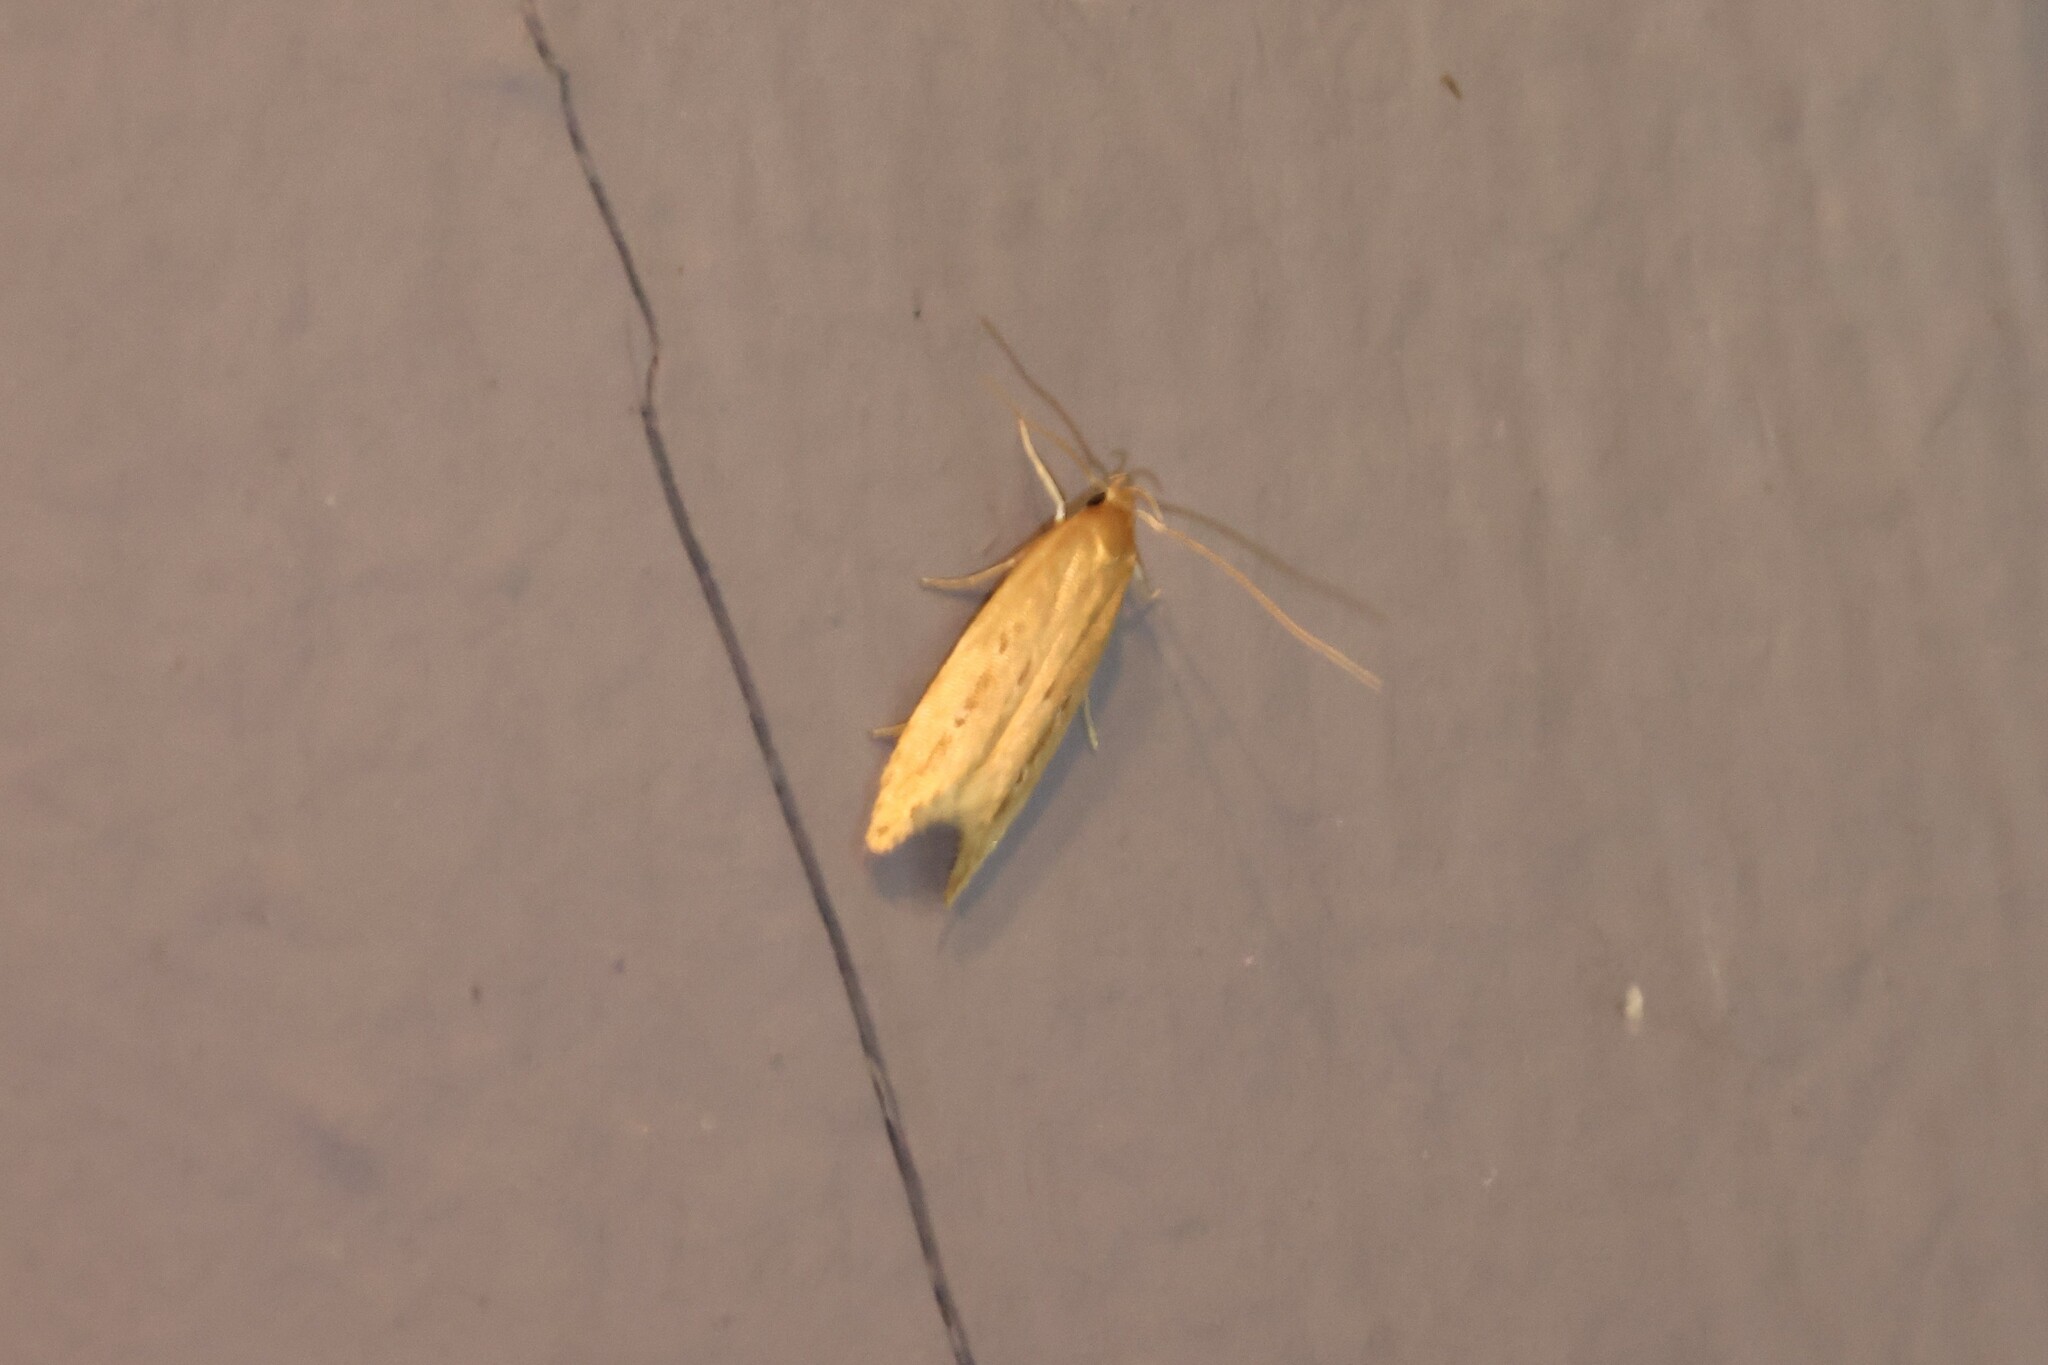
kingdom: Animalia
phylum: Arthropoda
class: Insecta
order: Lepidoptera
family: Cosmopterigidae
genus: Limnaecia
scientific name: Limnaecia phragmitella
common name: Bulrush cosmet
